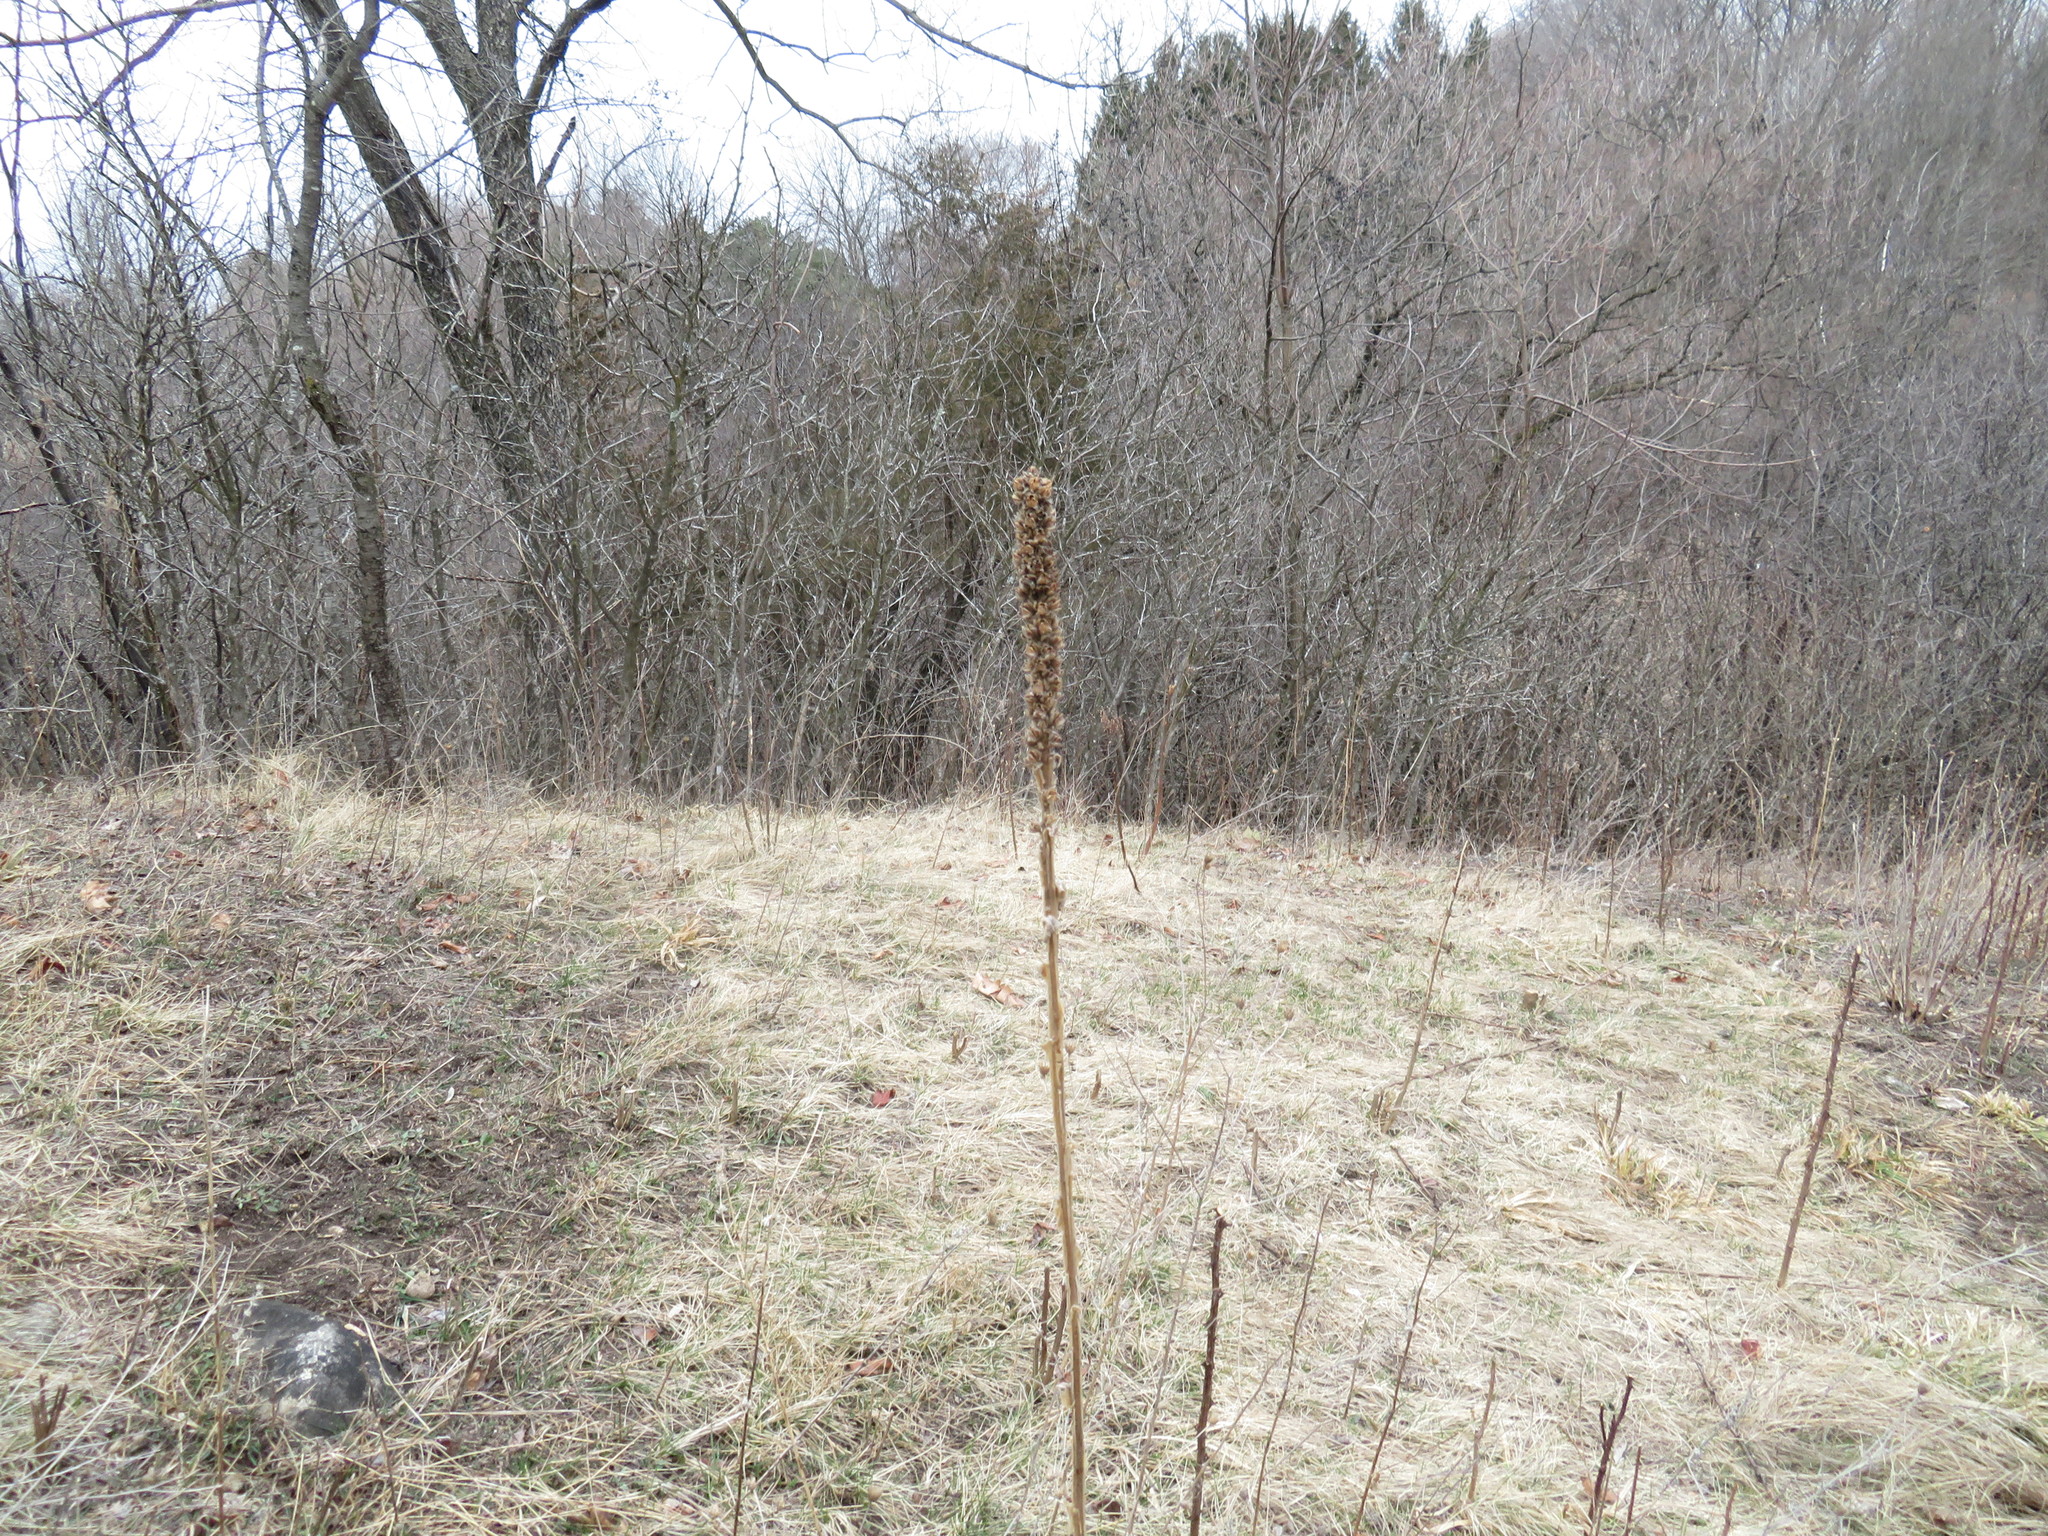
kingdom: Plantae
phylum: Tracheophyta
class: Magnoliopsida
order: Lamiales
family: Scrophulariaceae
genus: Verbascum
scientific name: Verbascum thapsus
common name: Common mullein
